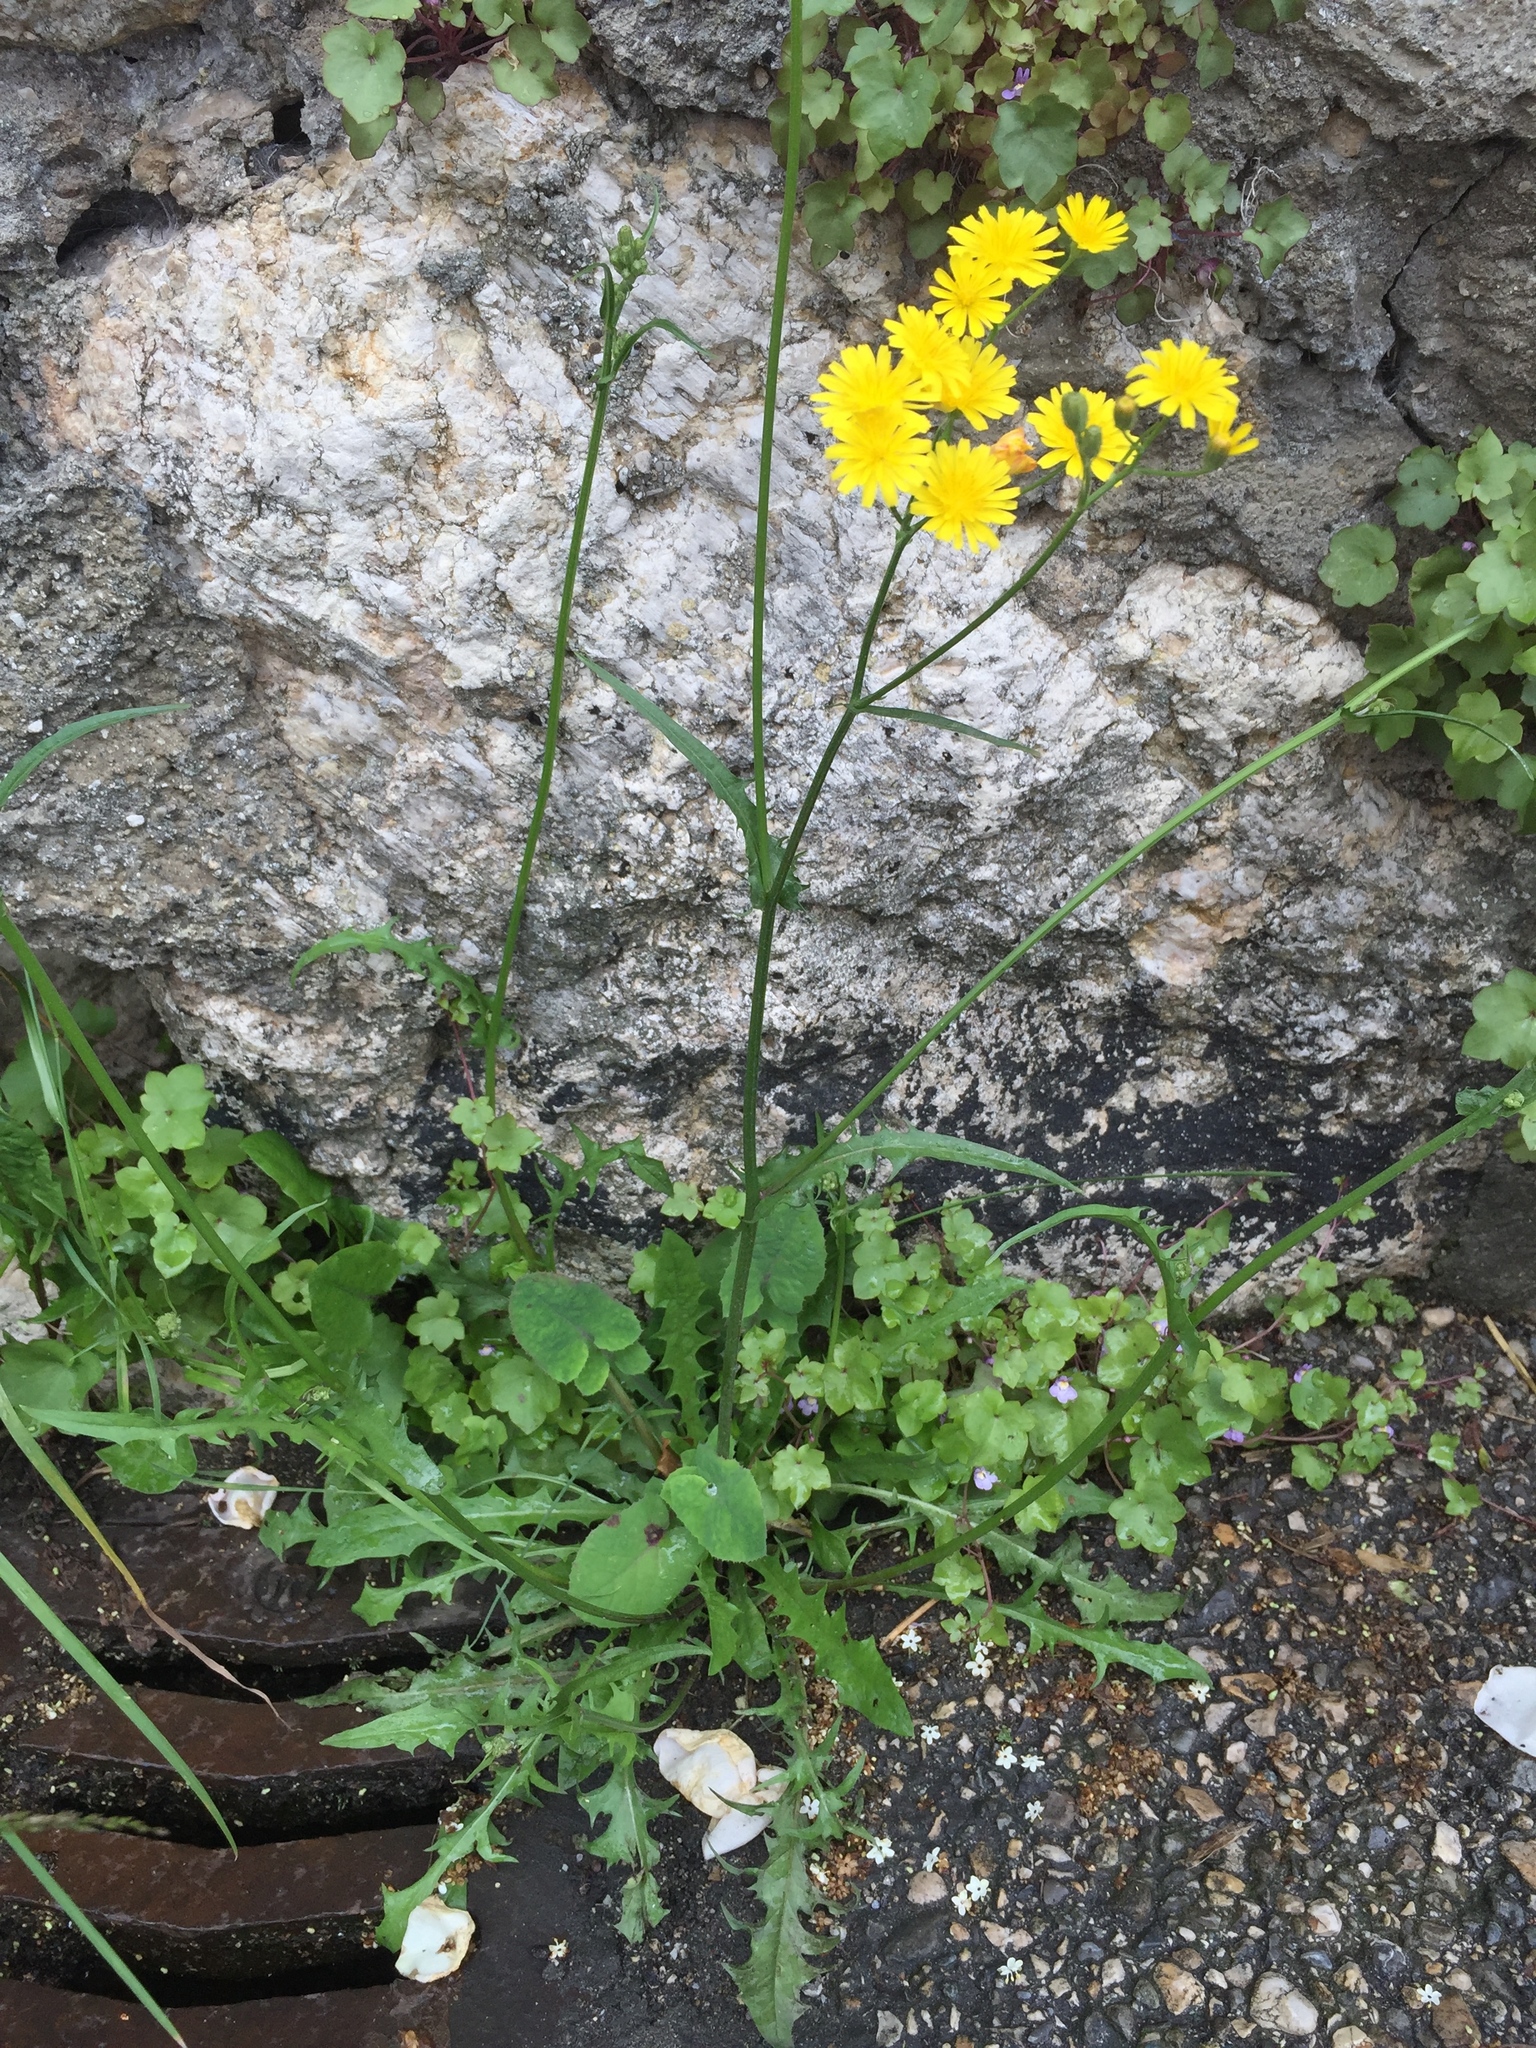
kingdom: Plantae
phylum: Tracheophyta
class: Magnoliopsida
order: Asterales
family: Asteraceae
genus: Crepis
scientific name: Crepis capillaris
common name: Smooth hawksbeard
